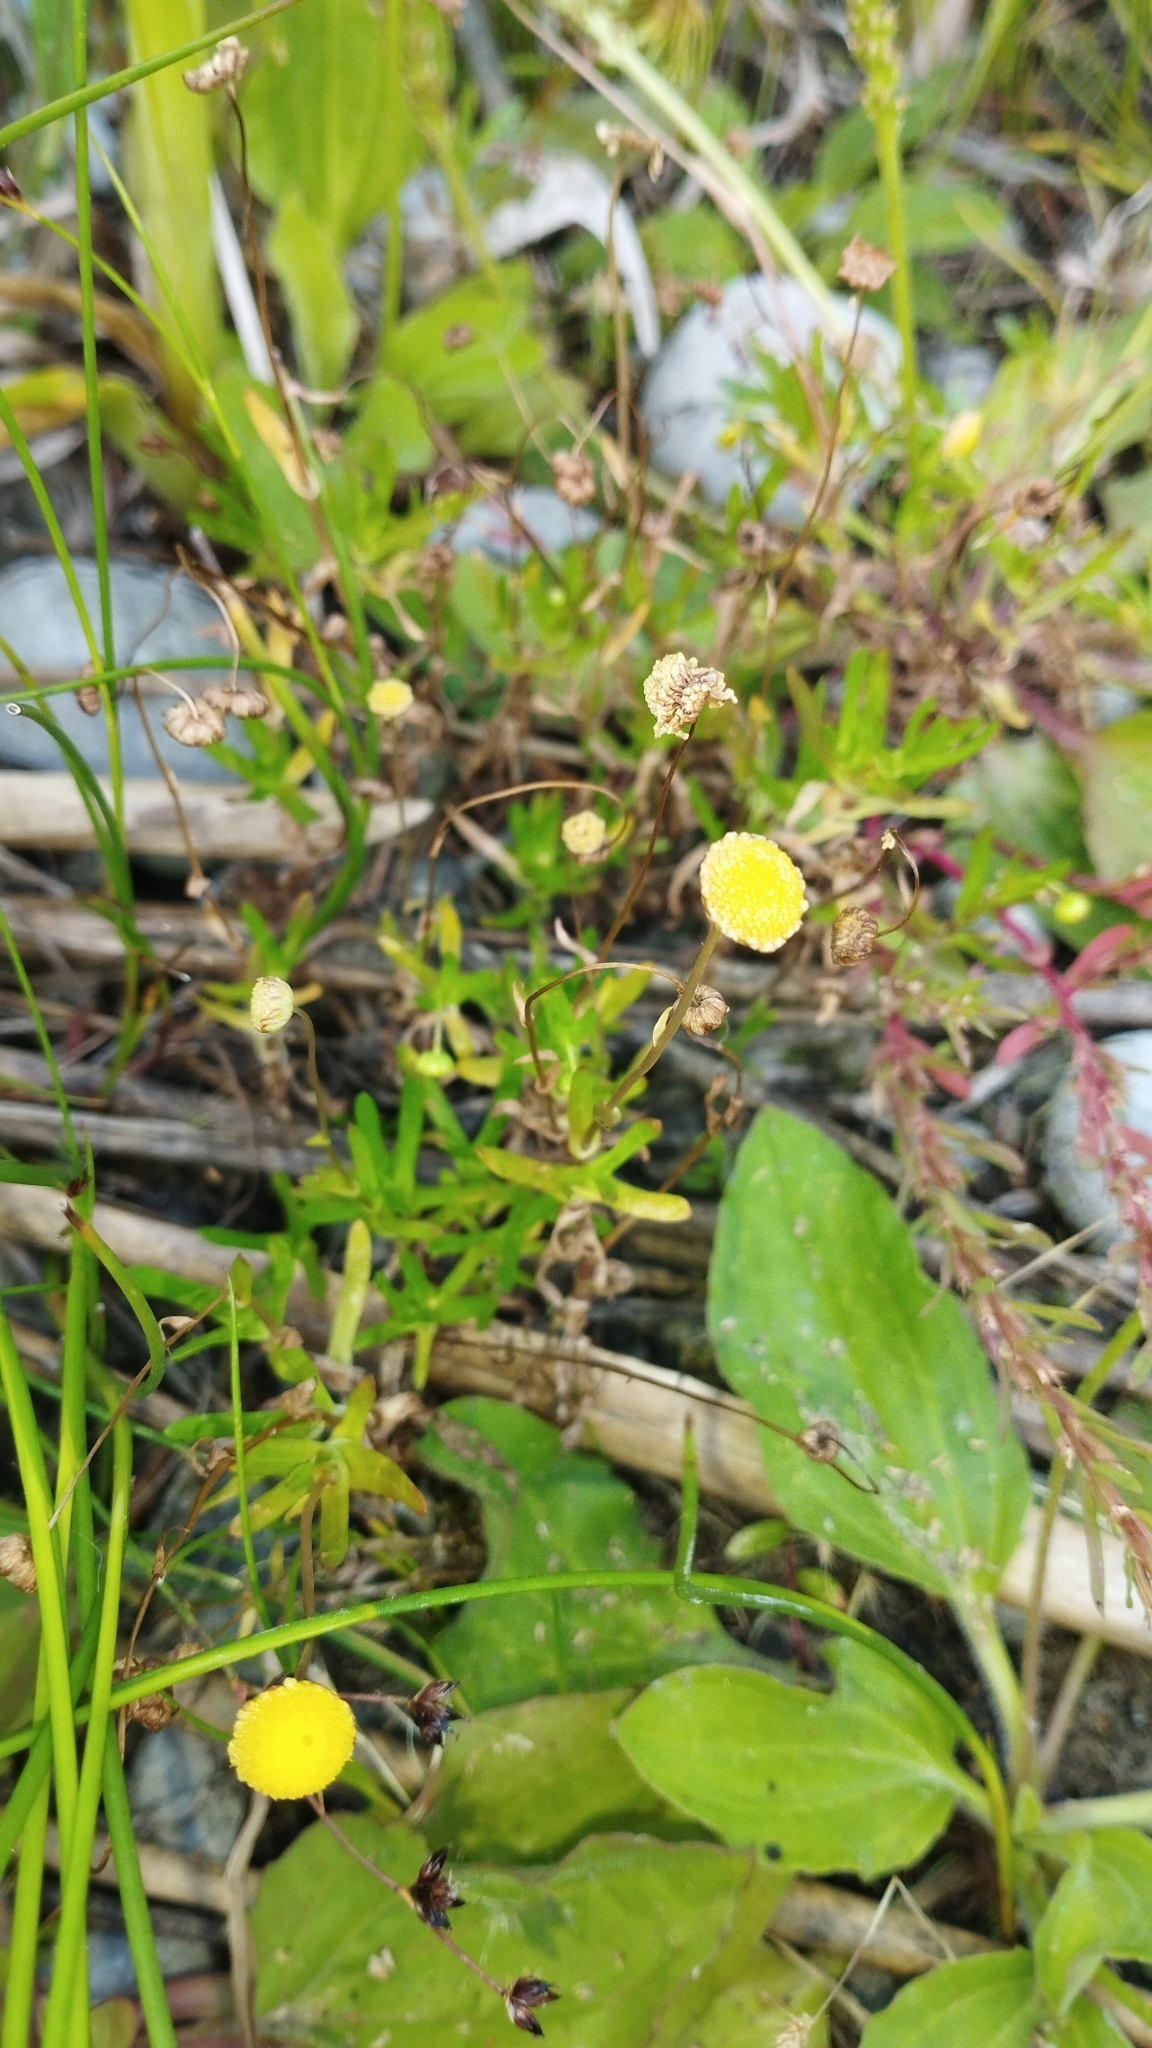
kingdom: Plantae
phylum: Tracheophyta
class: Magnoliopsida
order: Asterales
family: Asteraceae
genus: Cotula
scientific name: Cotula coronopifolia
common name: Buttonweed
